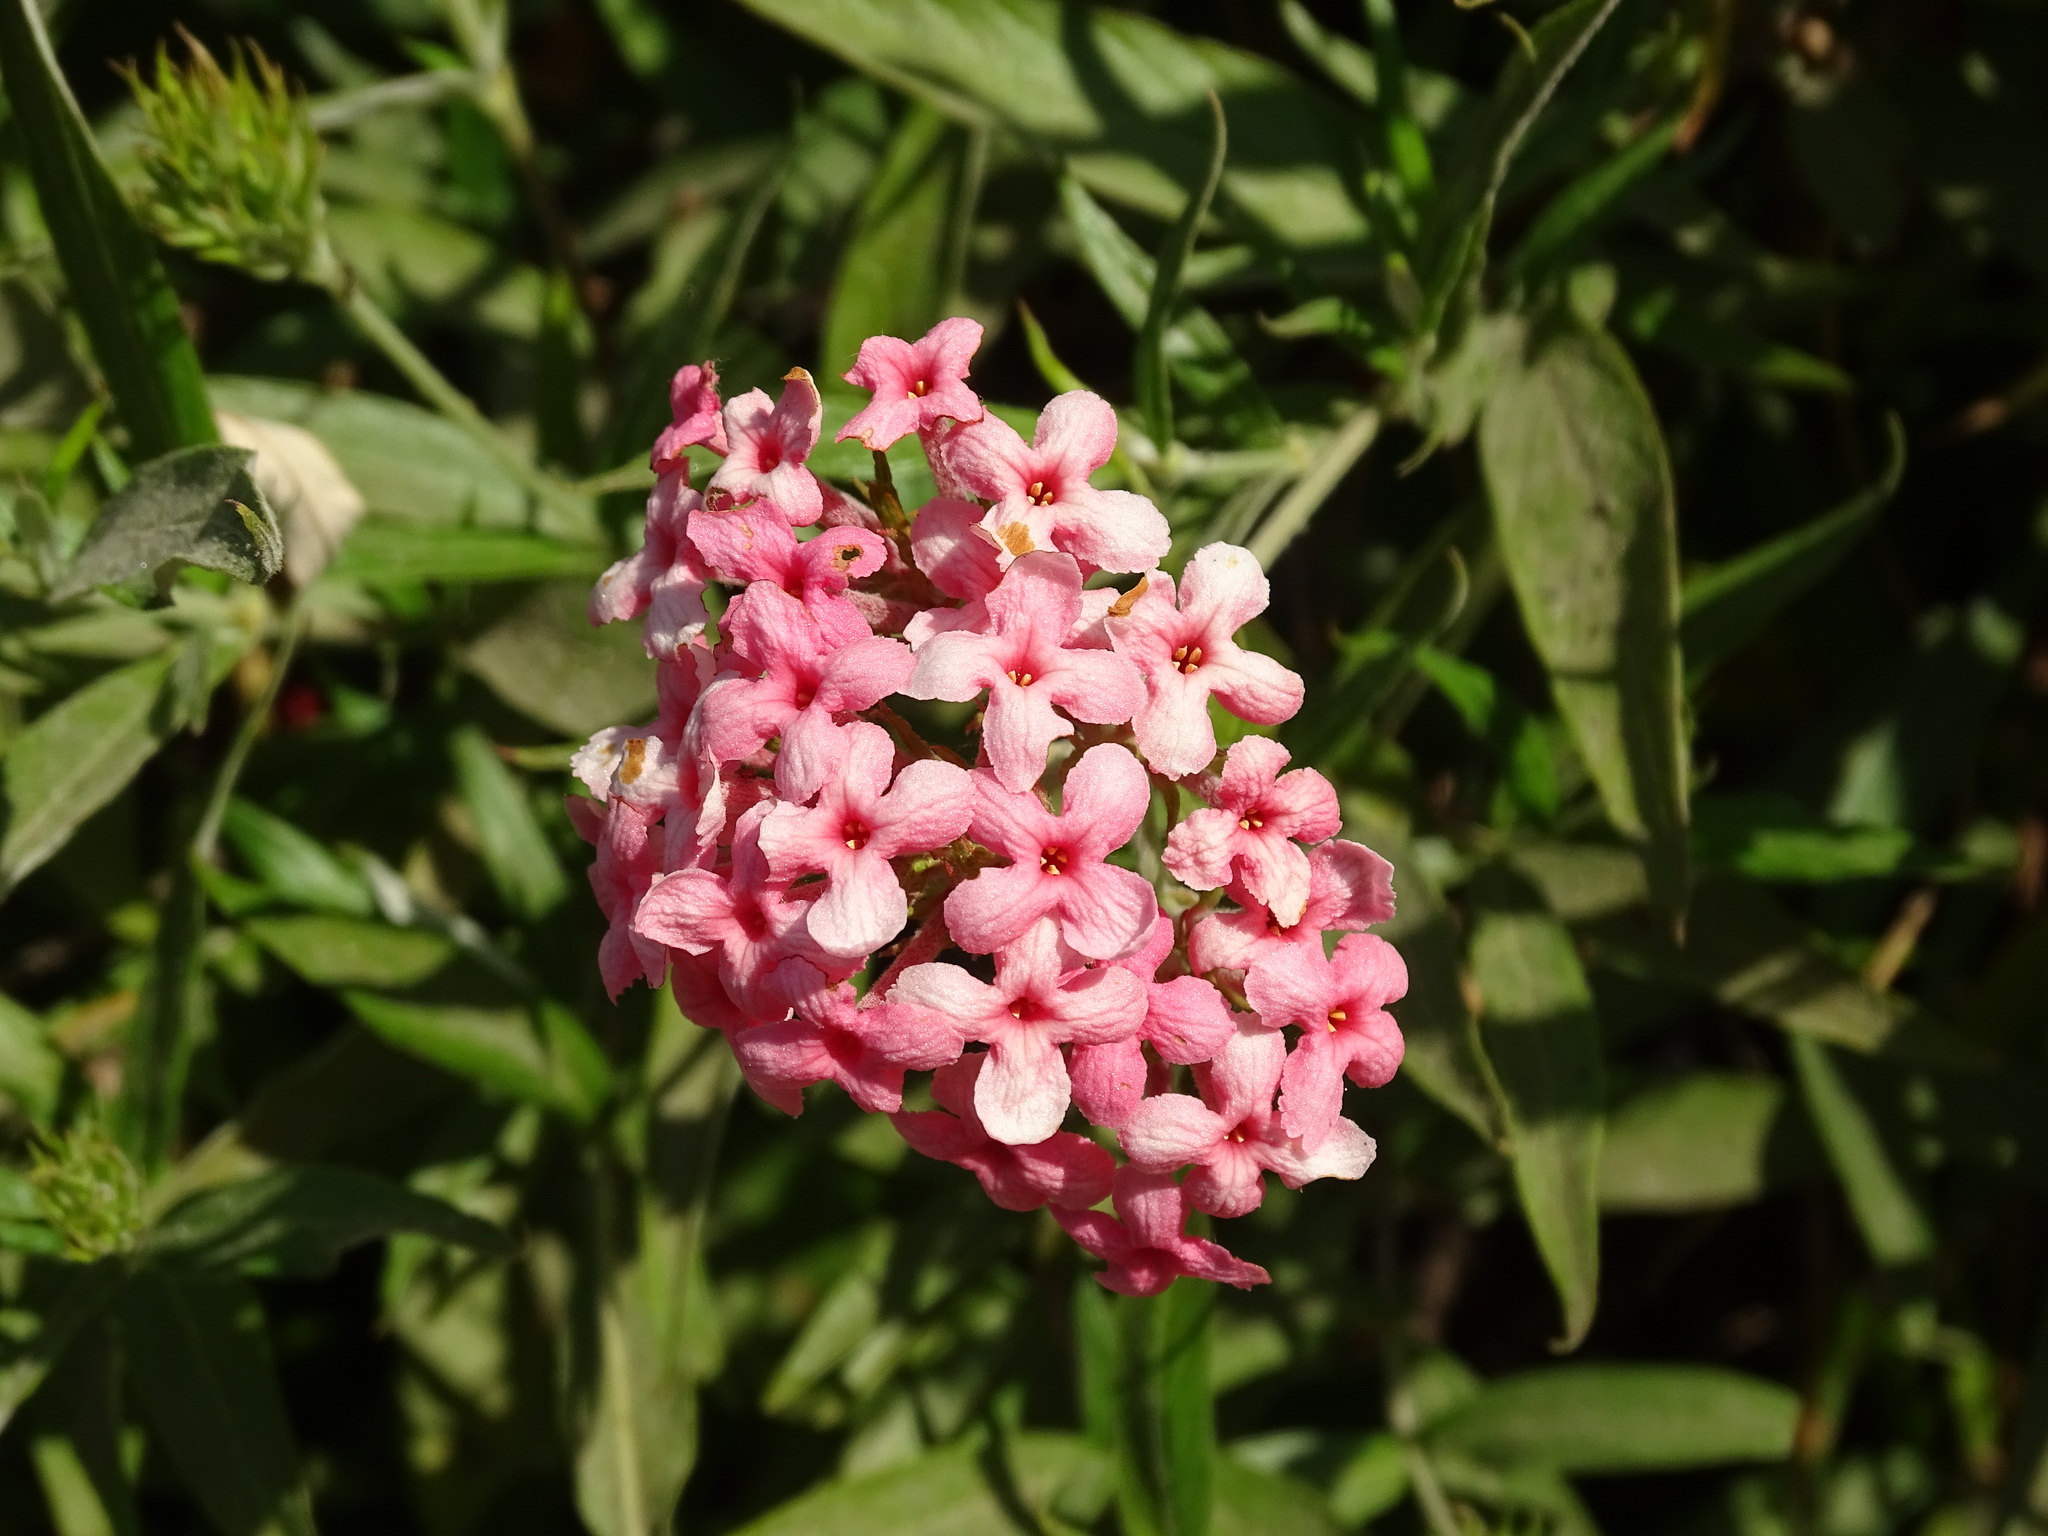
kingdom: Plantae
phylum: Tracheophyta
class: Magnoliopsida
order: Gentianales
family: Rubiaceae
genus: Arachnothryx
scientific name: Arachnothryx leucophylla
